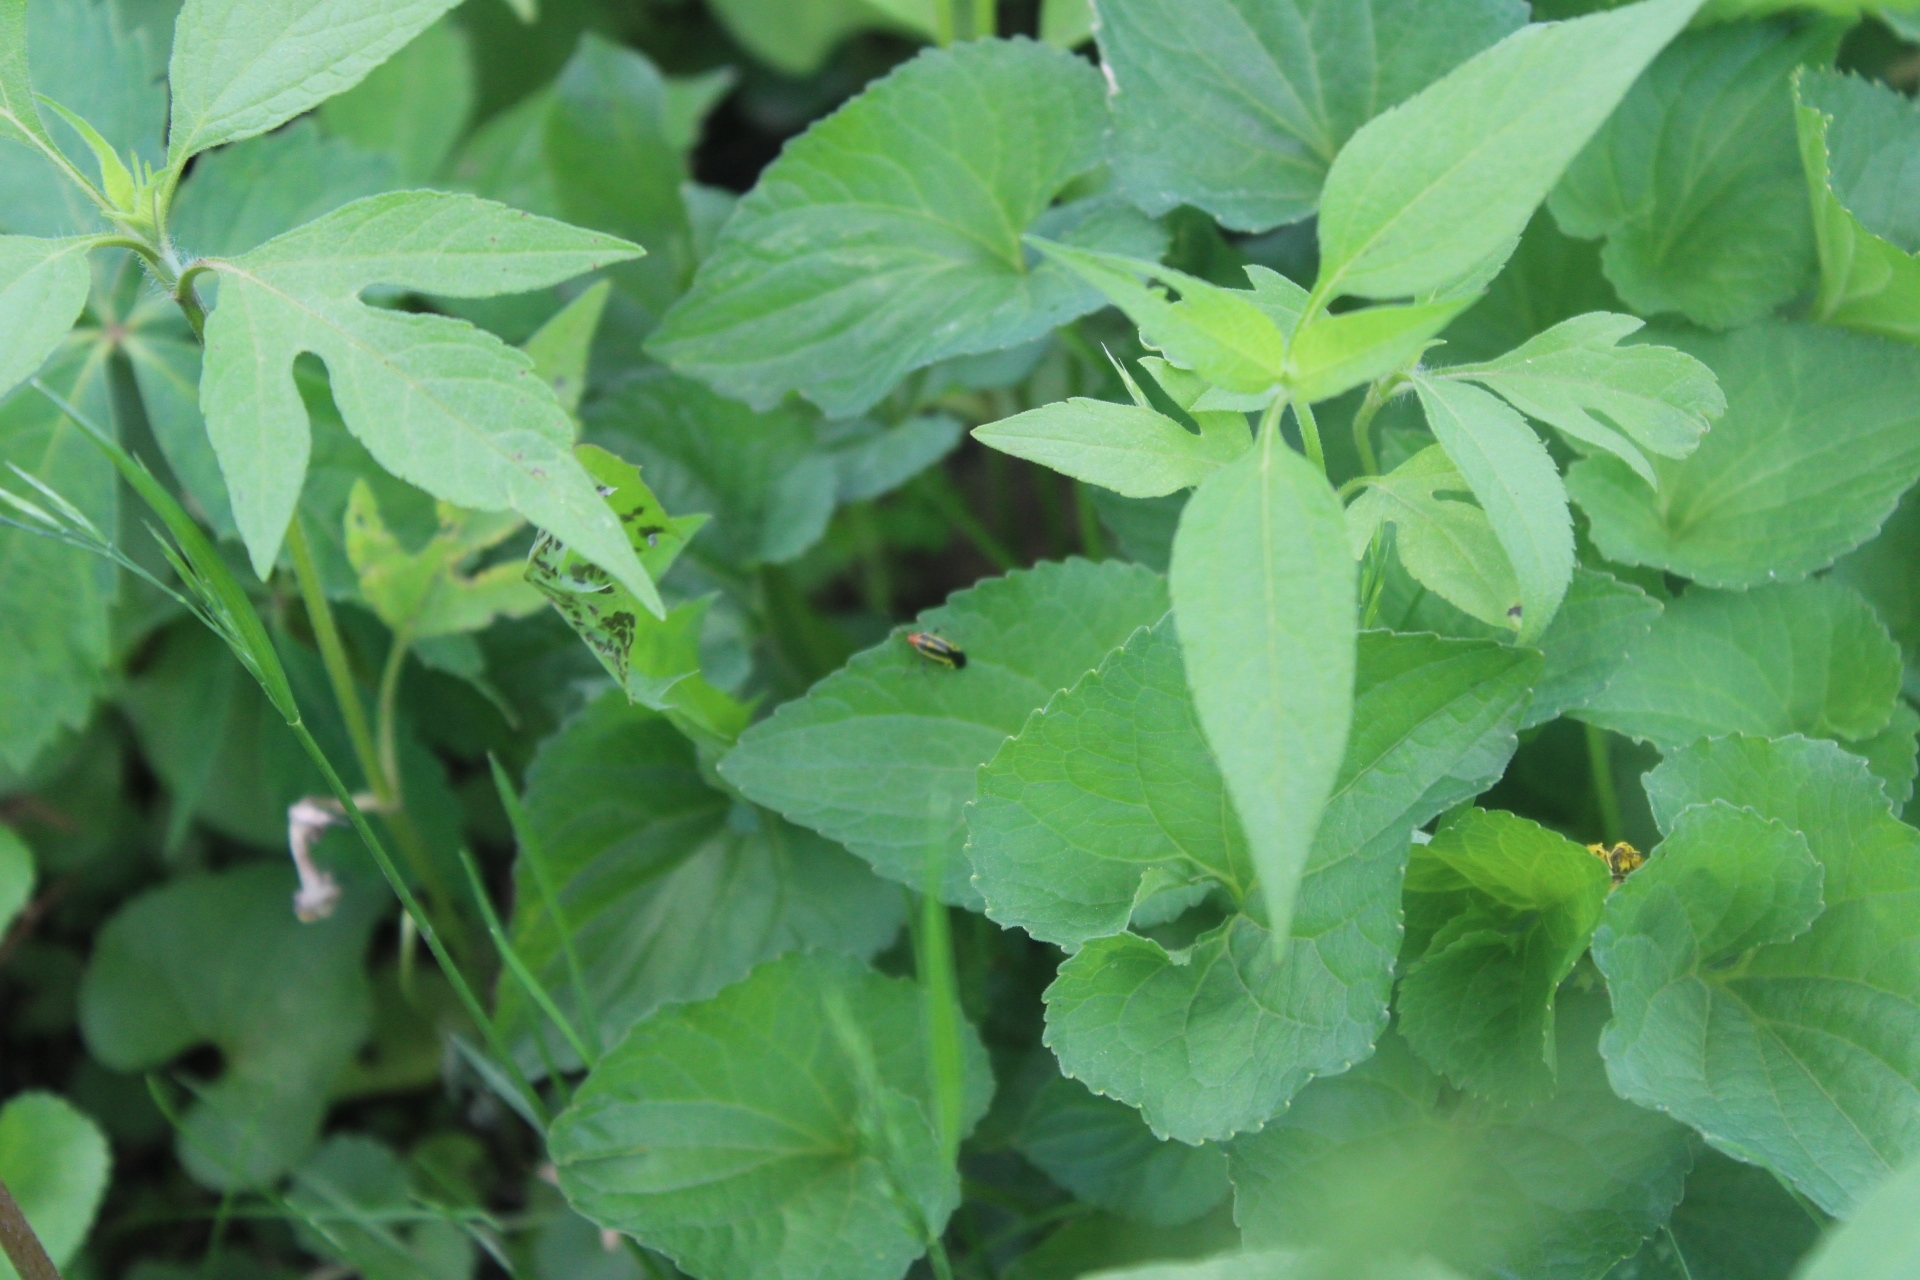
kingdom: Animalia
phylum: Arthropoda
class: Insecta
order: Hemiptera
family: Miridae
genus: Poecilocapsus
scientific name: Poecilocapsus lineatus
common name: Four-lined plant bug
